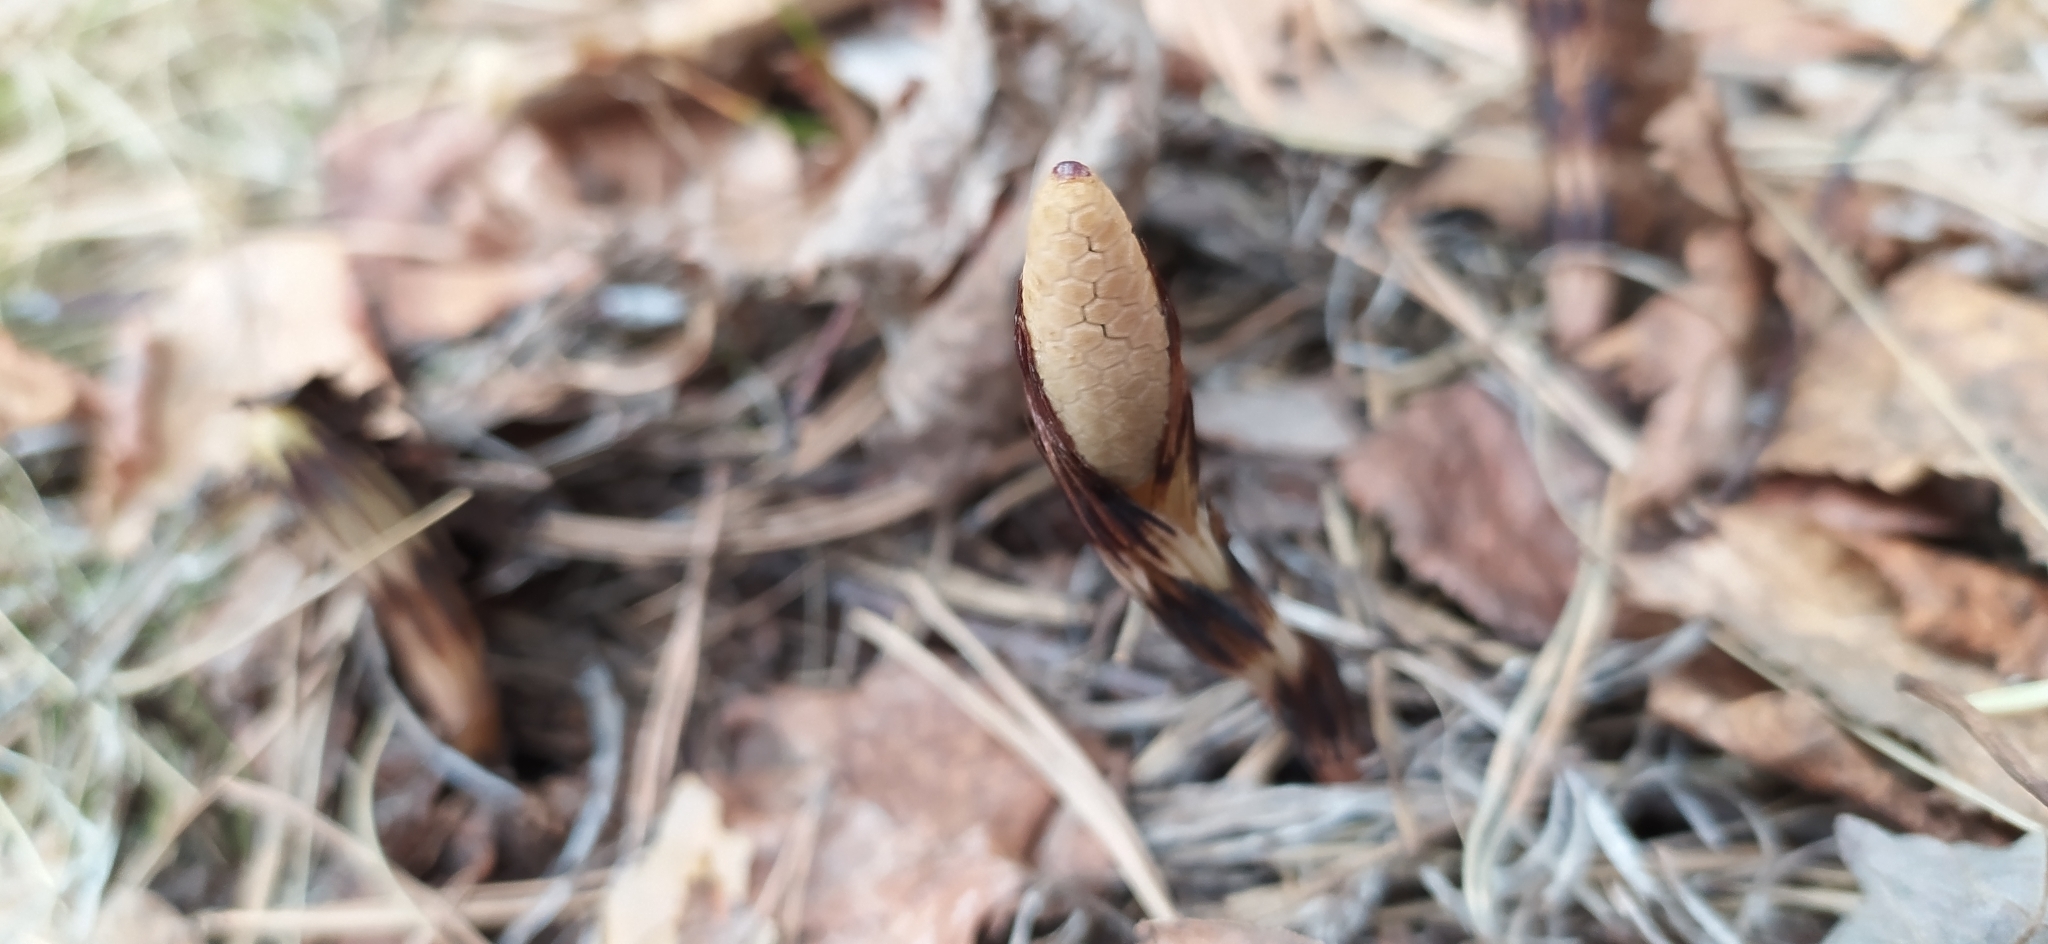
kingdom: Plantae
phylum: Tracheophyta
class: Polypodiopsida
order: Equisetales
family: Equisetaceae
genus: Equisetum
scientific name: Equisetum arvense
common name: Field horsetail
